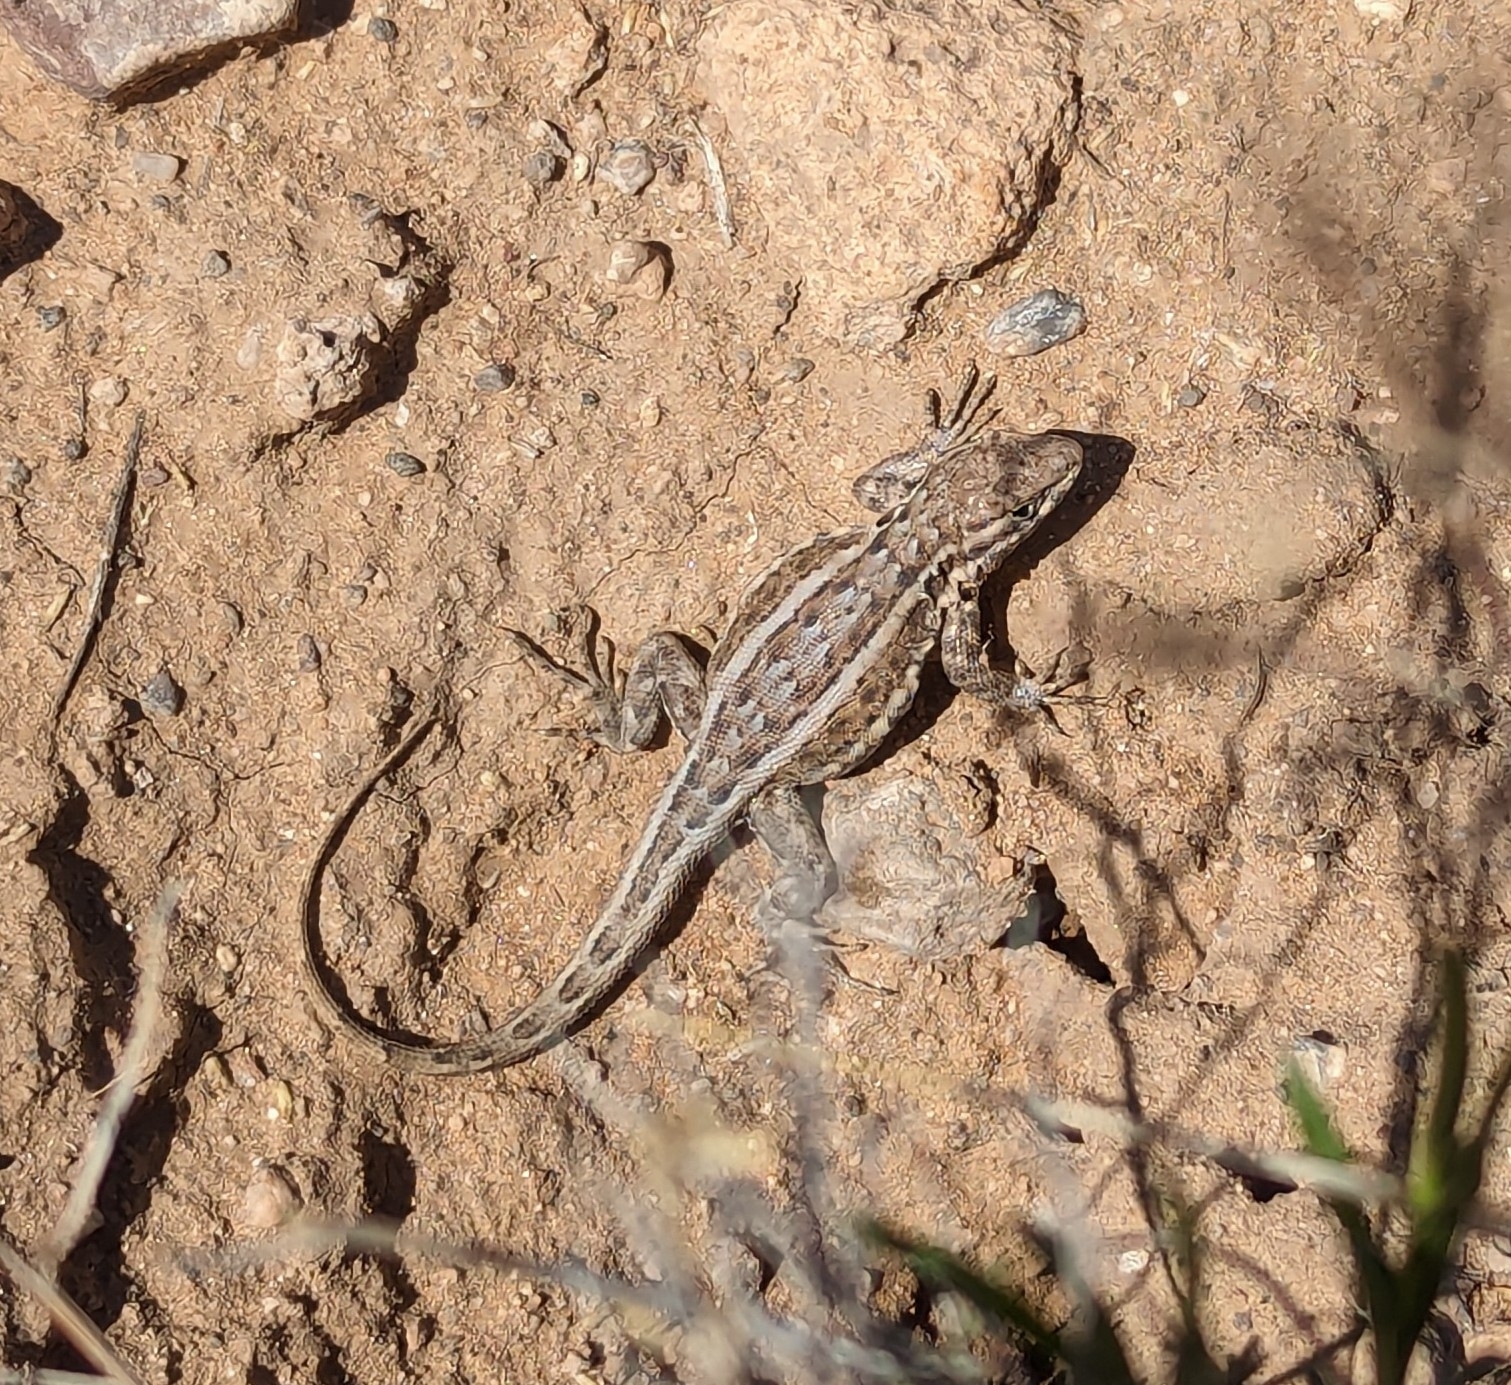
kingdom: Animalia
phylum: Chordata
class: Squamata
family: Phrynosomatidae
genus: Uta
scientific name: Uta stansburiana
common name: Side-blotched lizard
